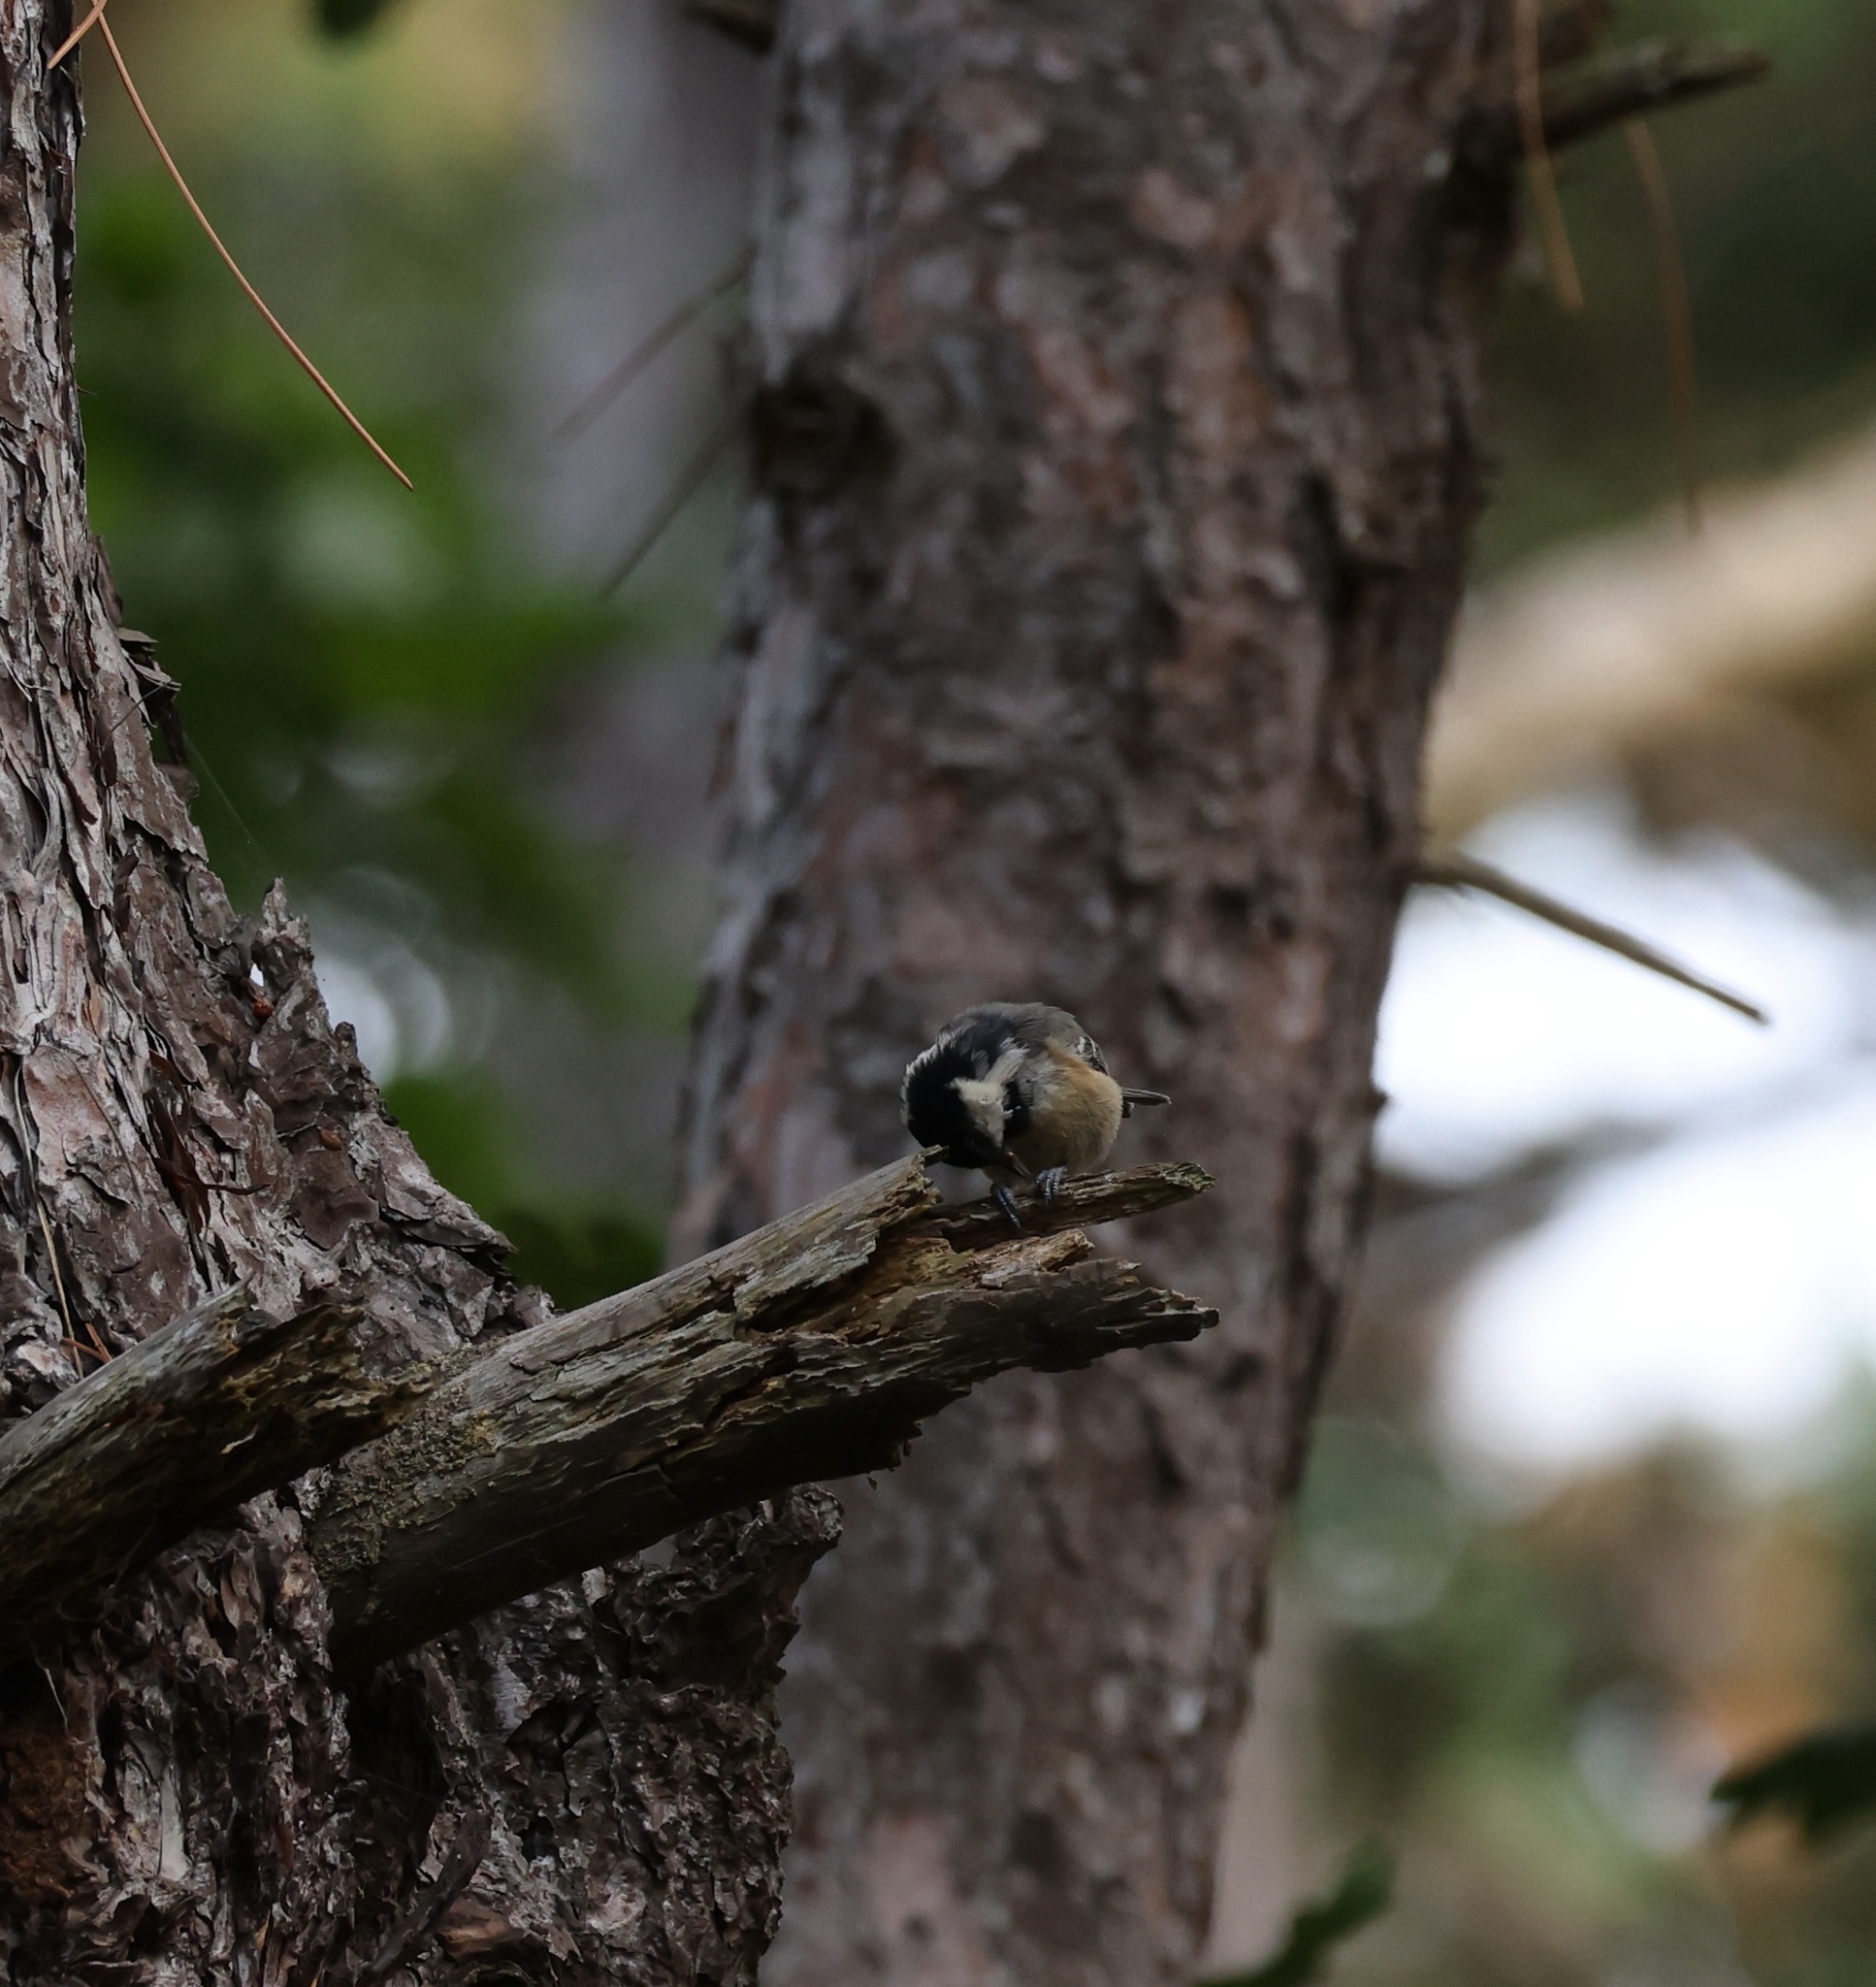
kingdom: Animalia
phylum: Chordata
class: Aves
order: Passeriformes
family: Paridae
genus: Periparus
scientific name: Periparus ater
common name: Coal tit
